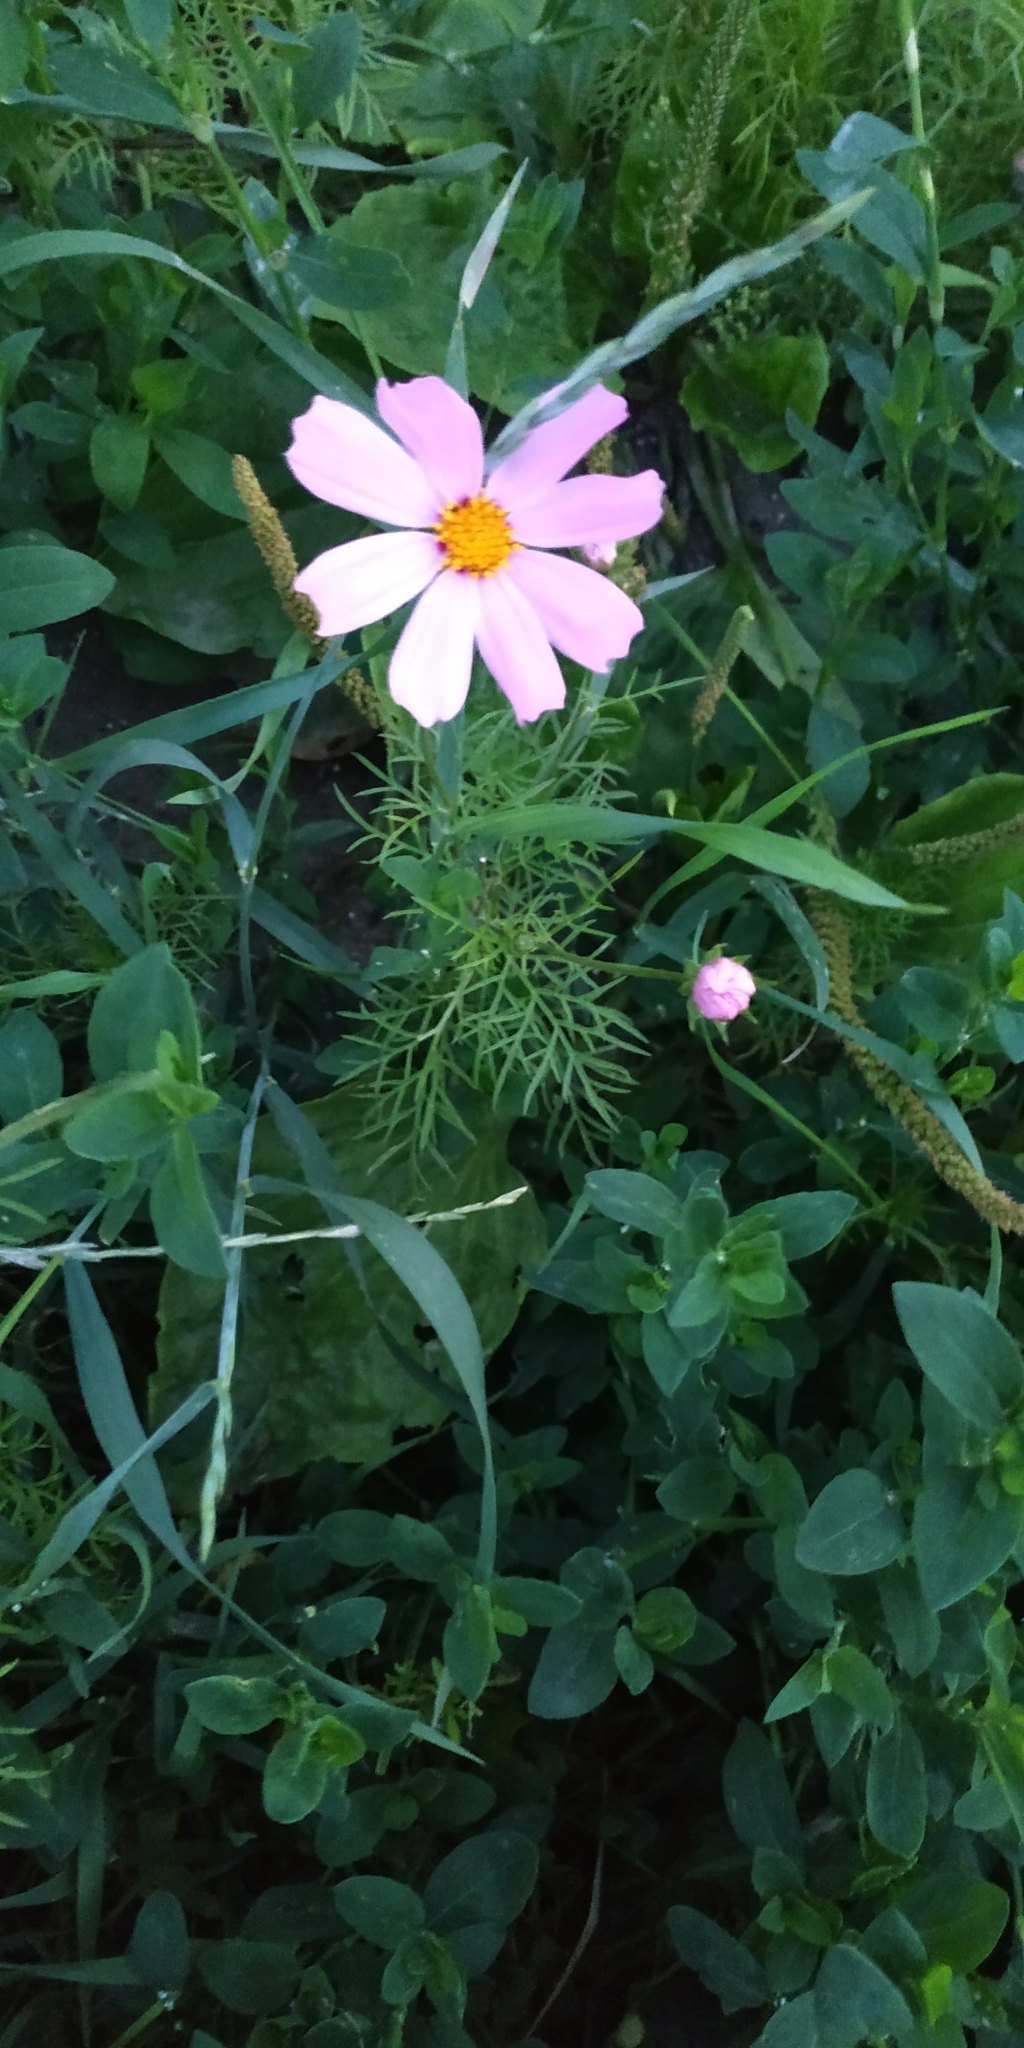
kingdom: Plantae
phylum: Tracheophyta
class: Magnoliopsida
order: Asterales
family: Asteraceae
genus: Cosmos
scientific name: Cosmos bipinnatus
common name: Garden cosmos
